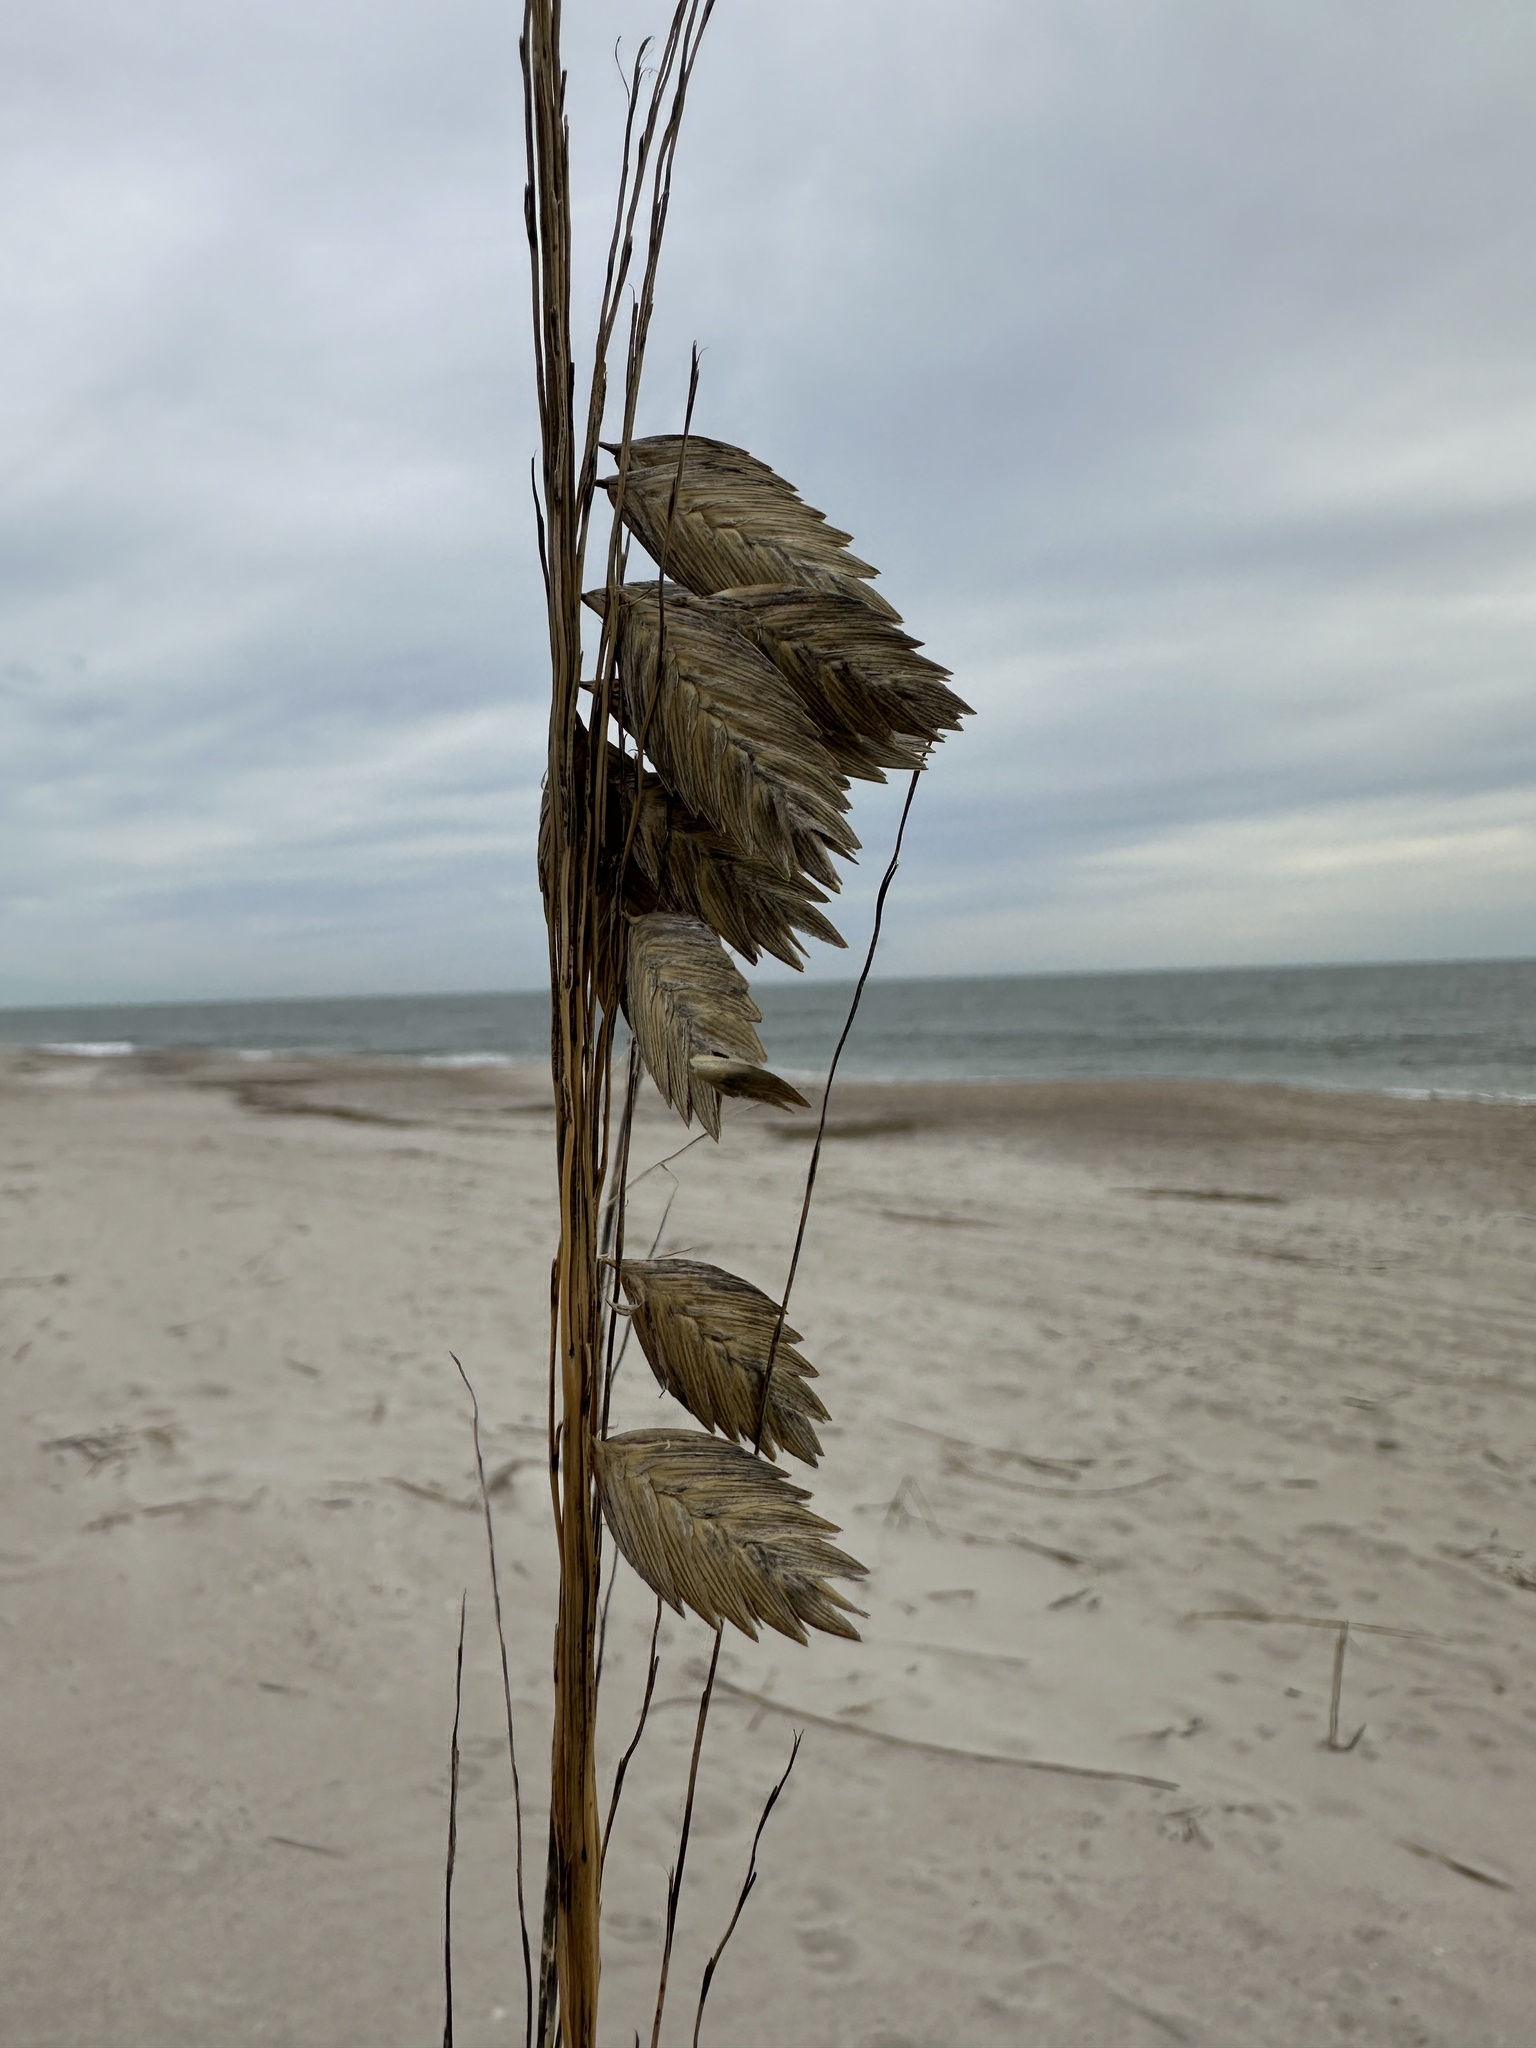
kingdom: Plantae
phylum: Tracheophyta
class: Liliopsida
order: Poales
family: Poaceae
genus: Uniola
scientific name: Uniola paniculata
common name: Seaside-oats
